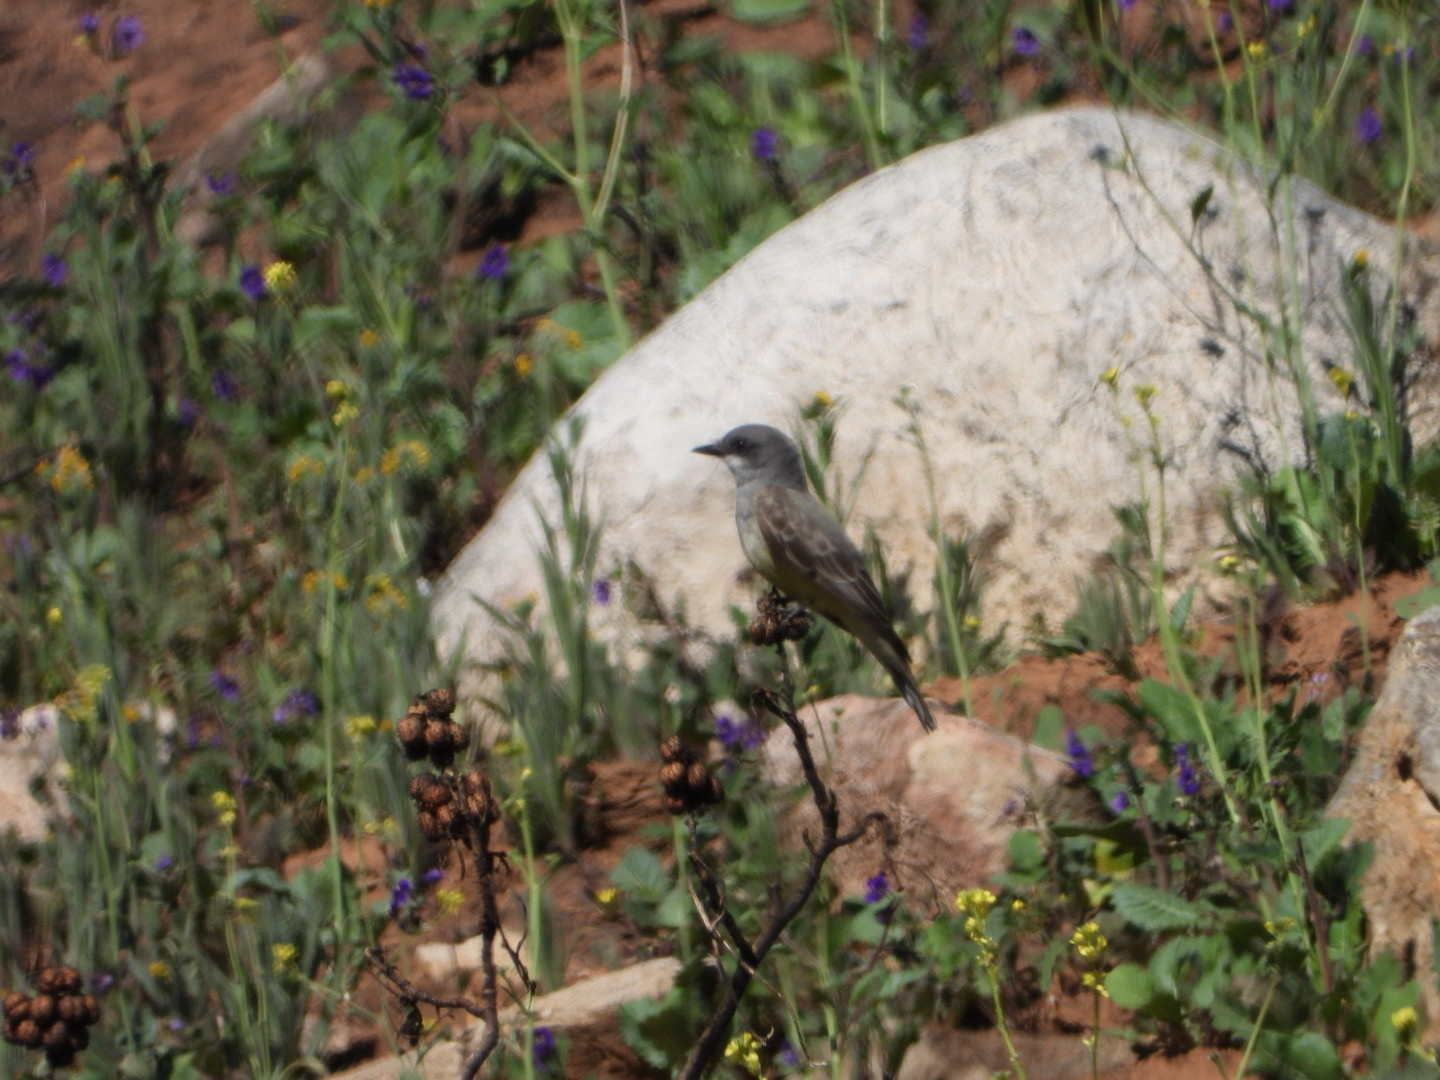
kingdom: Animalia
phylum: Chordata
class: Aves
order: Passeriformes
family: Tyrannidae
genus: Tyrannus
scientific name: Tyrannus vociferans
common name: Cassin's kingbird
